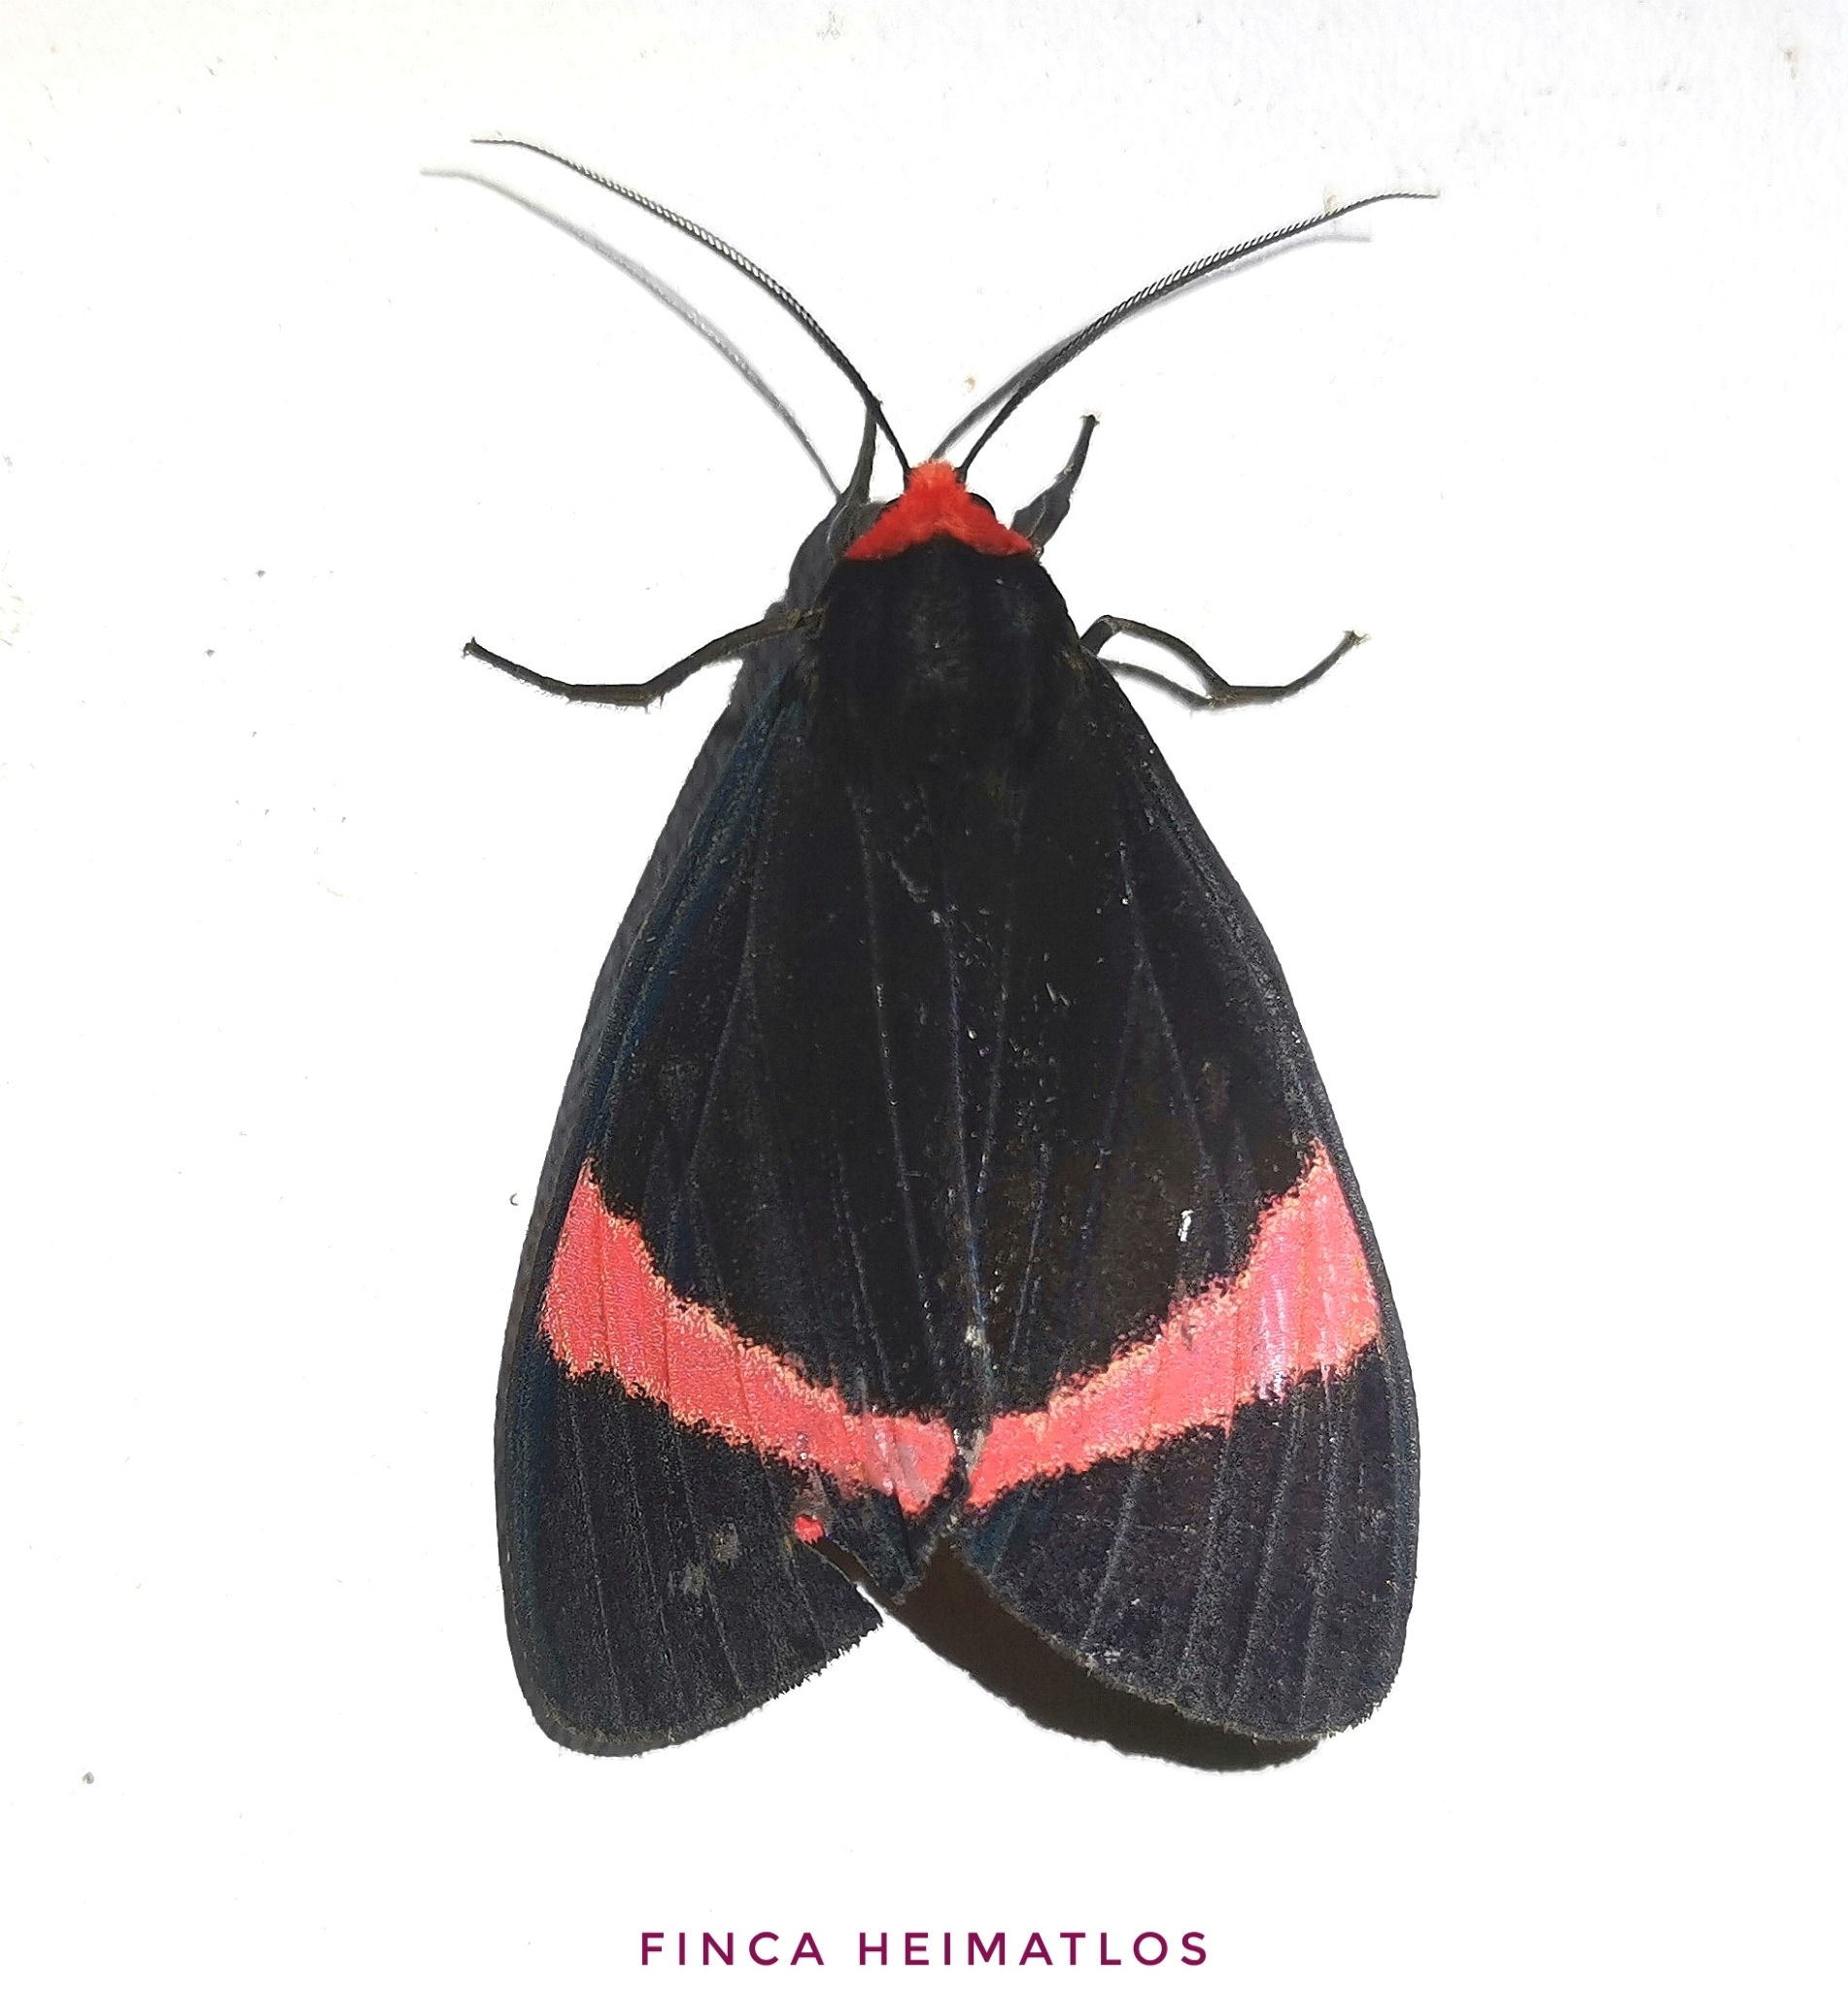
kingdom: Animalia
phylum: Arthropoda
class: Insecta
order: Lepidoptera
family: Erebidae
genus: Coreura
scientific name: Coreura simsoni
